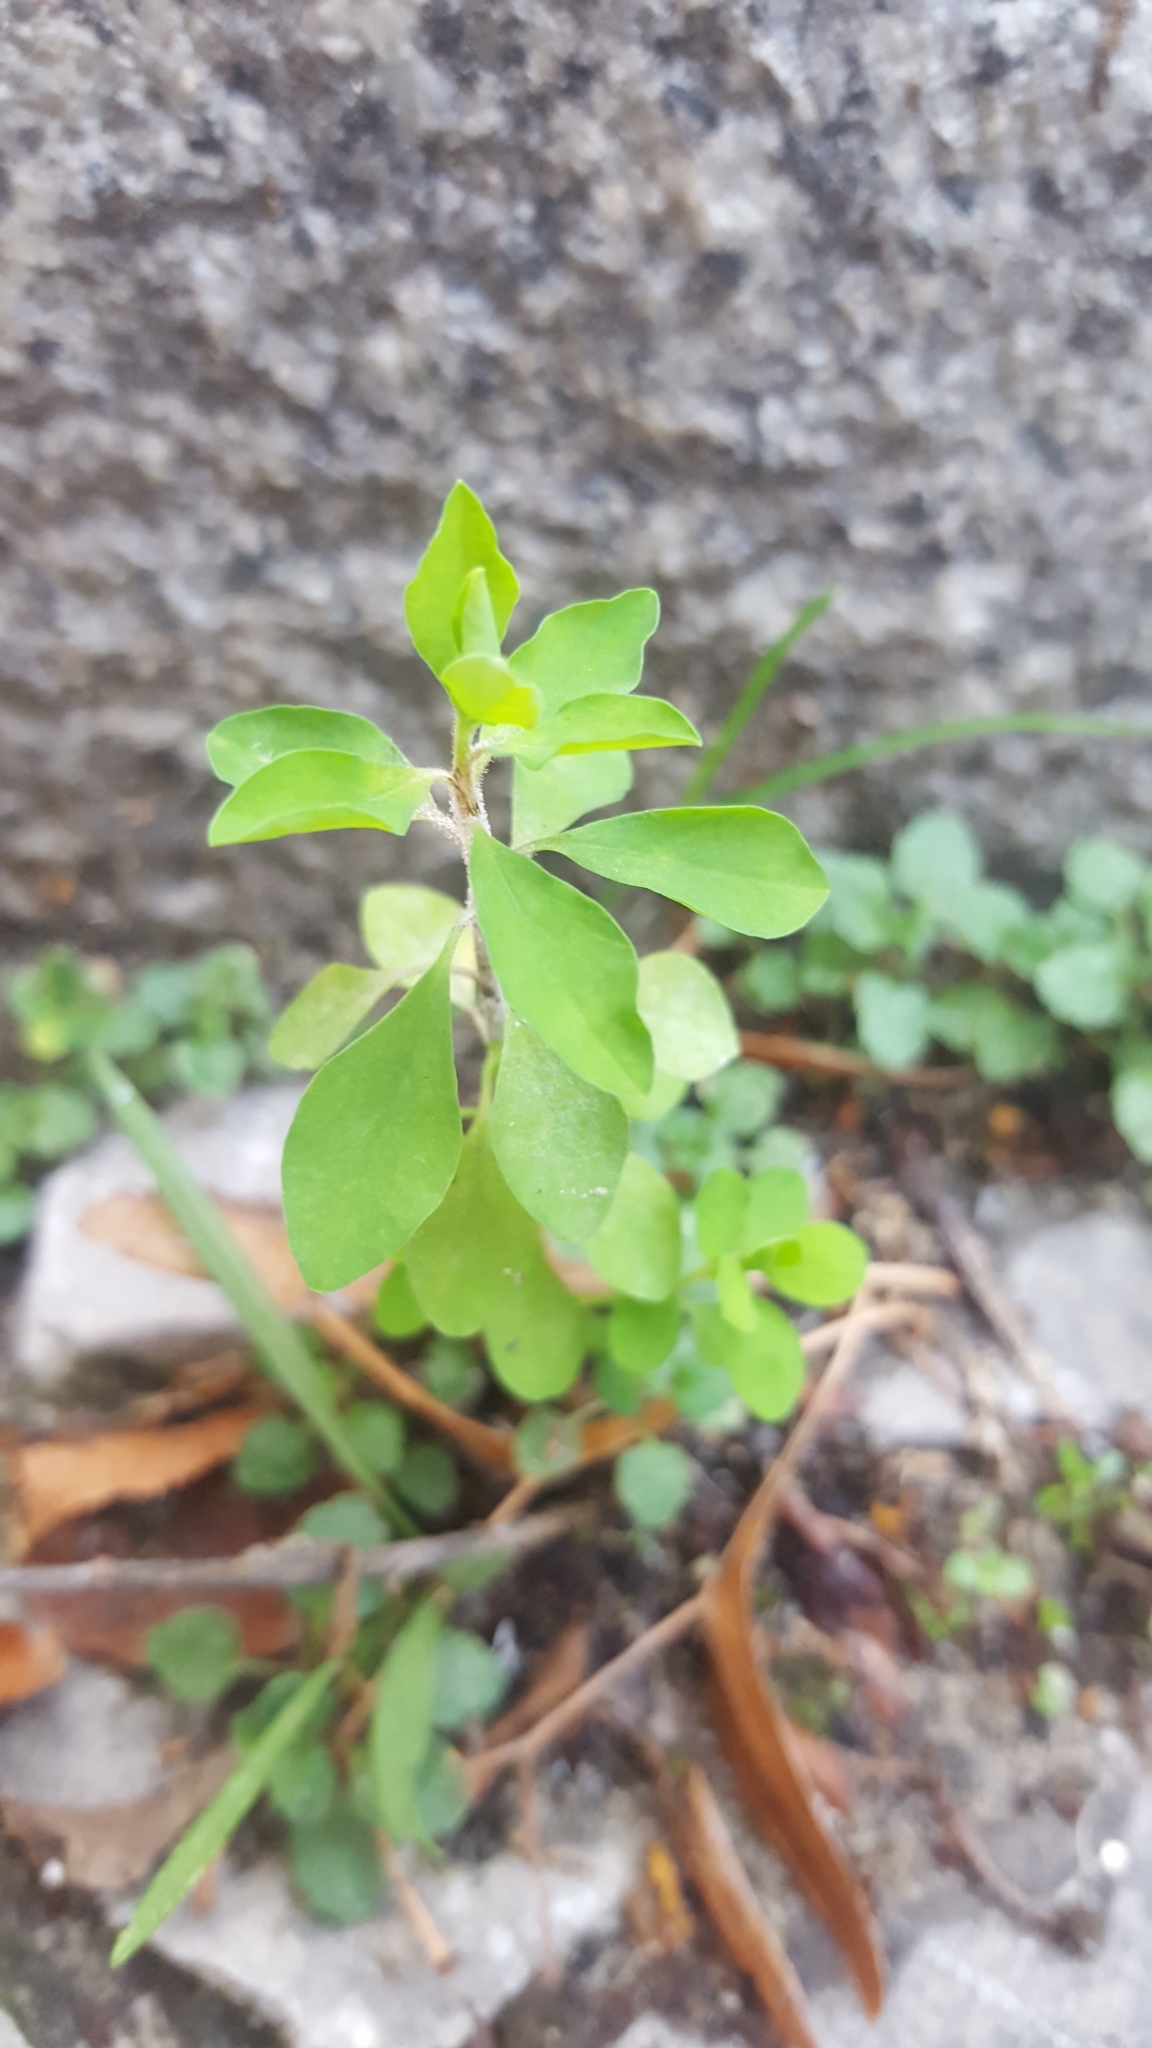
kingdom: Plantae
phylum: Tracheophyta
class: Magnoliopsida
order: Malpighiales
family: Euphorbiaceae
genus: Euphorbia
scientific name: Euphorbia peplus
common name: Petty spurge
